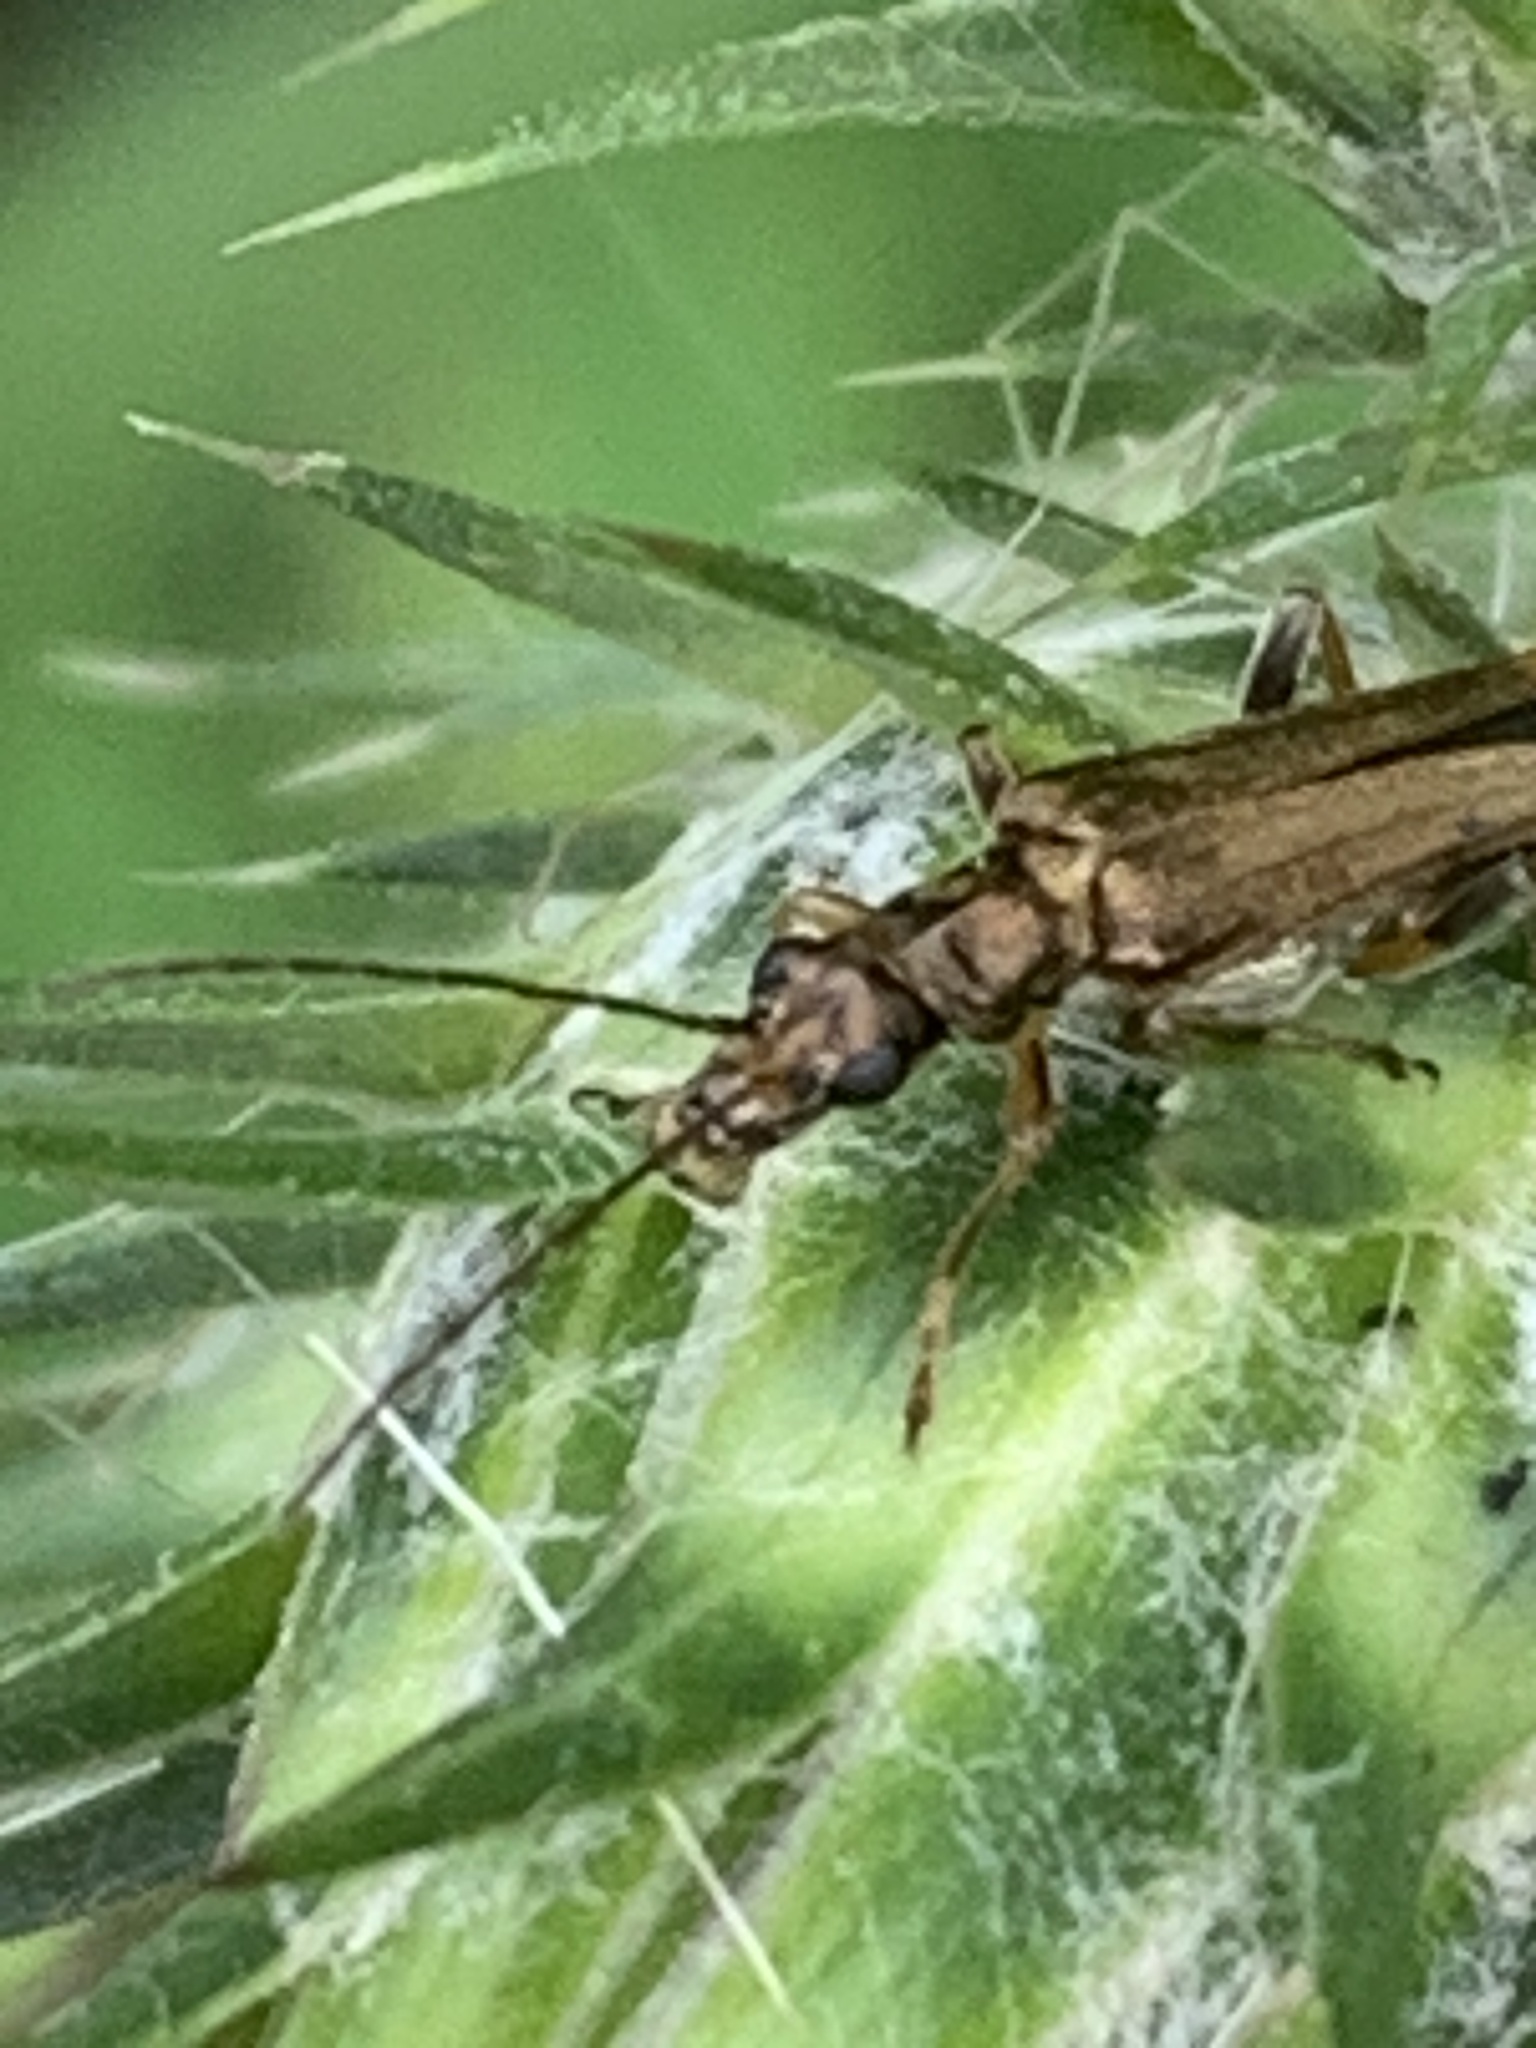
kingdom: Animalia
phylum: Arthropoda
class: Insecta
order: Coleoptera
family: Oedemeridae
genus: Oedemera
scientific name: Oedemera barbara
